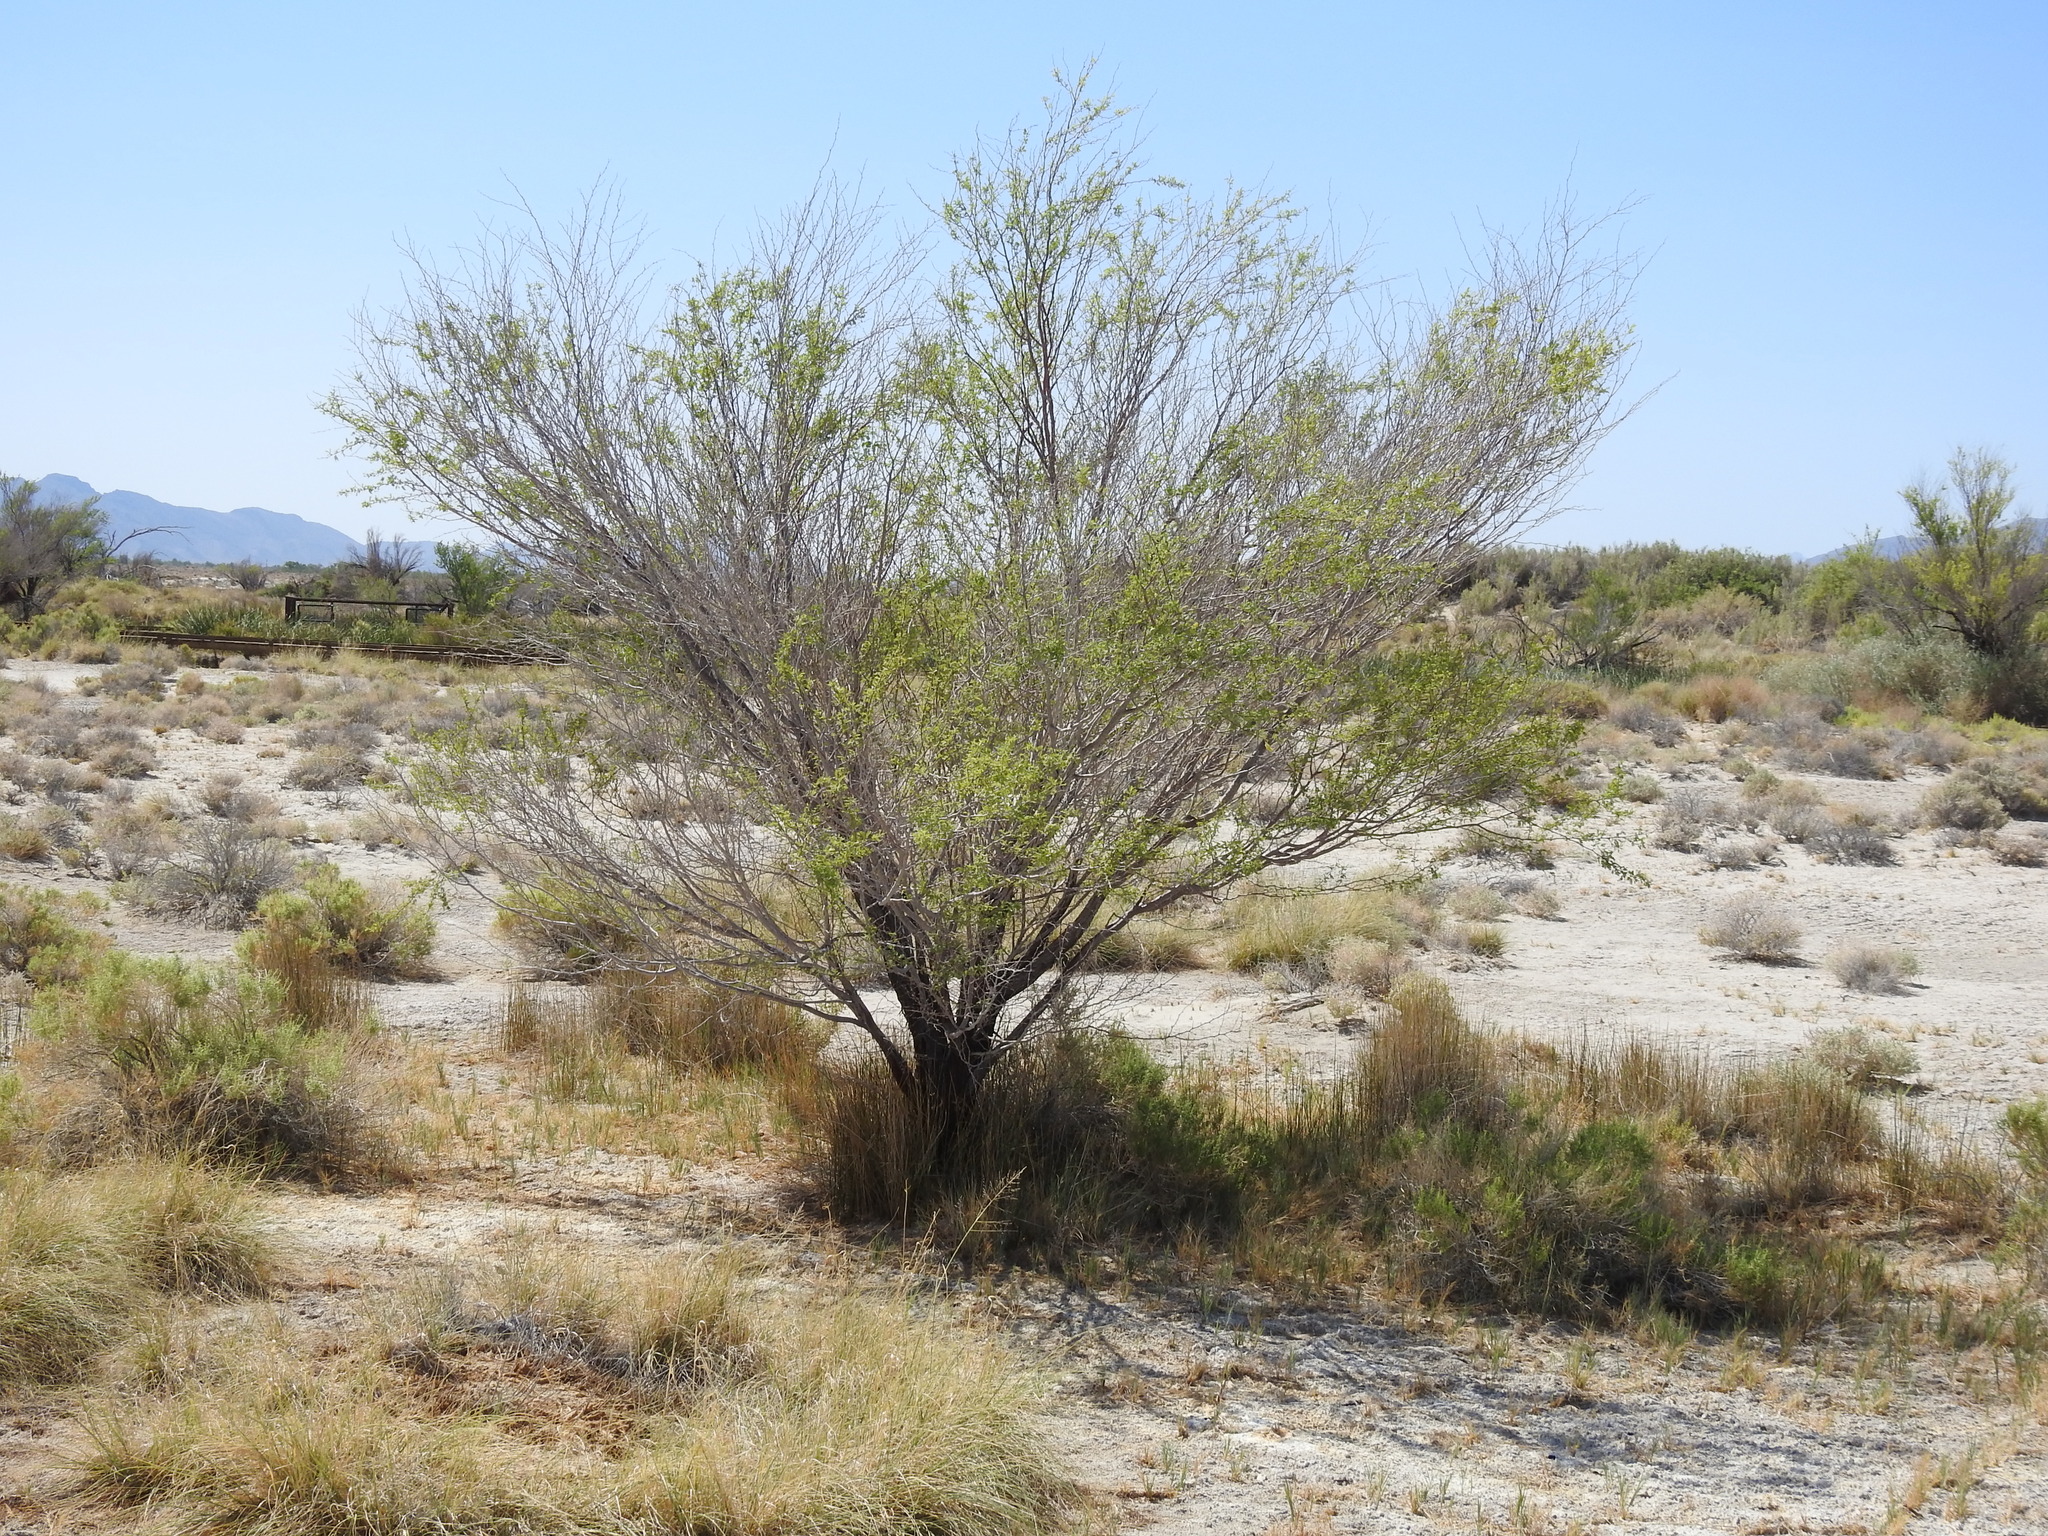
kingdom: Plantae
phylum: Tracheophyta
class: Magnoliopsida
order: Fabales
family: Fabaceae
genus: Prosopis
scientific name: Prosopis pubescens
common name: Screw-bean
